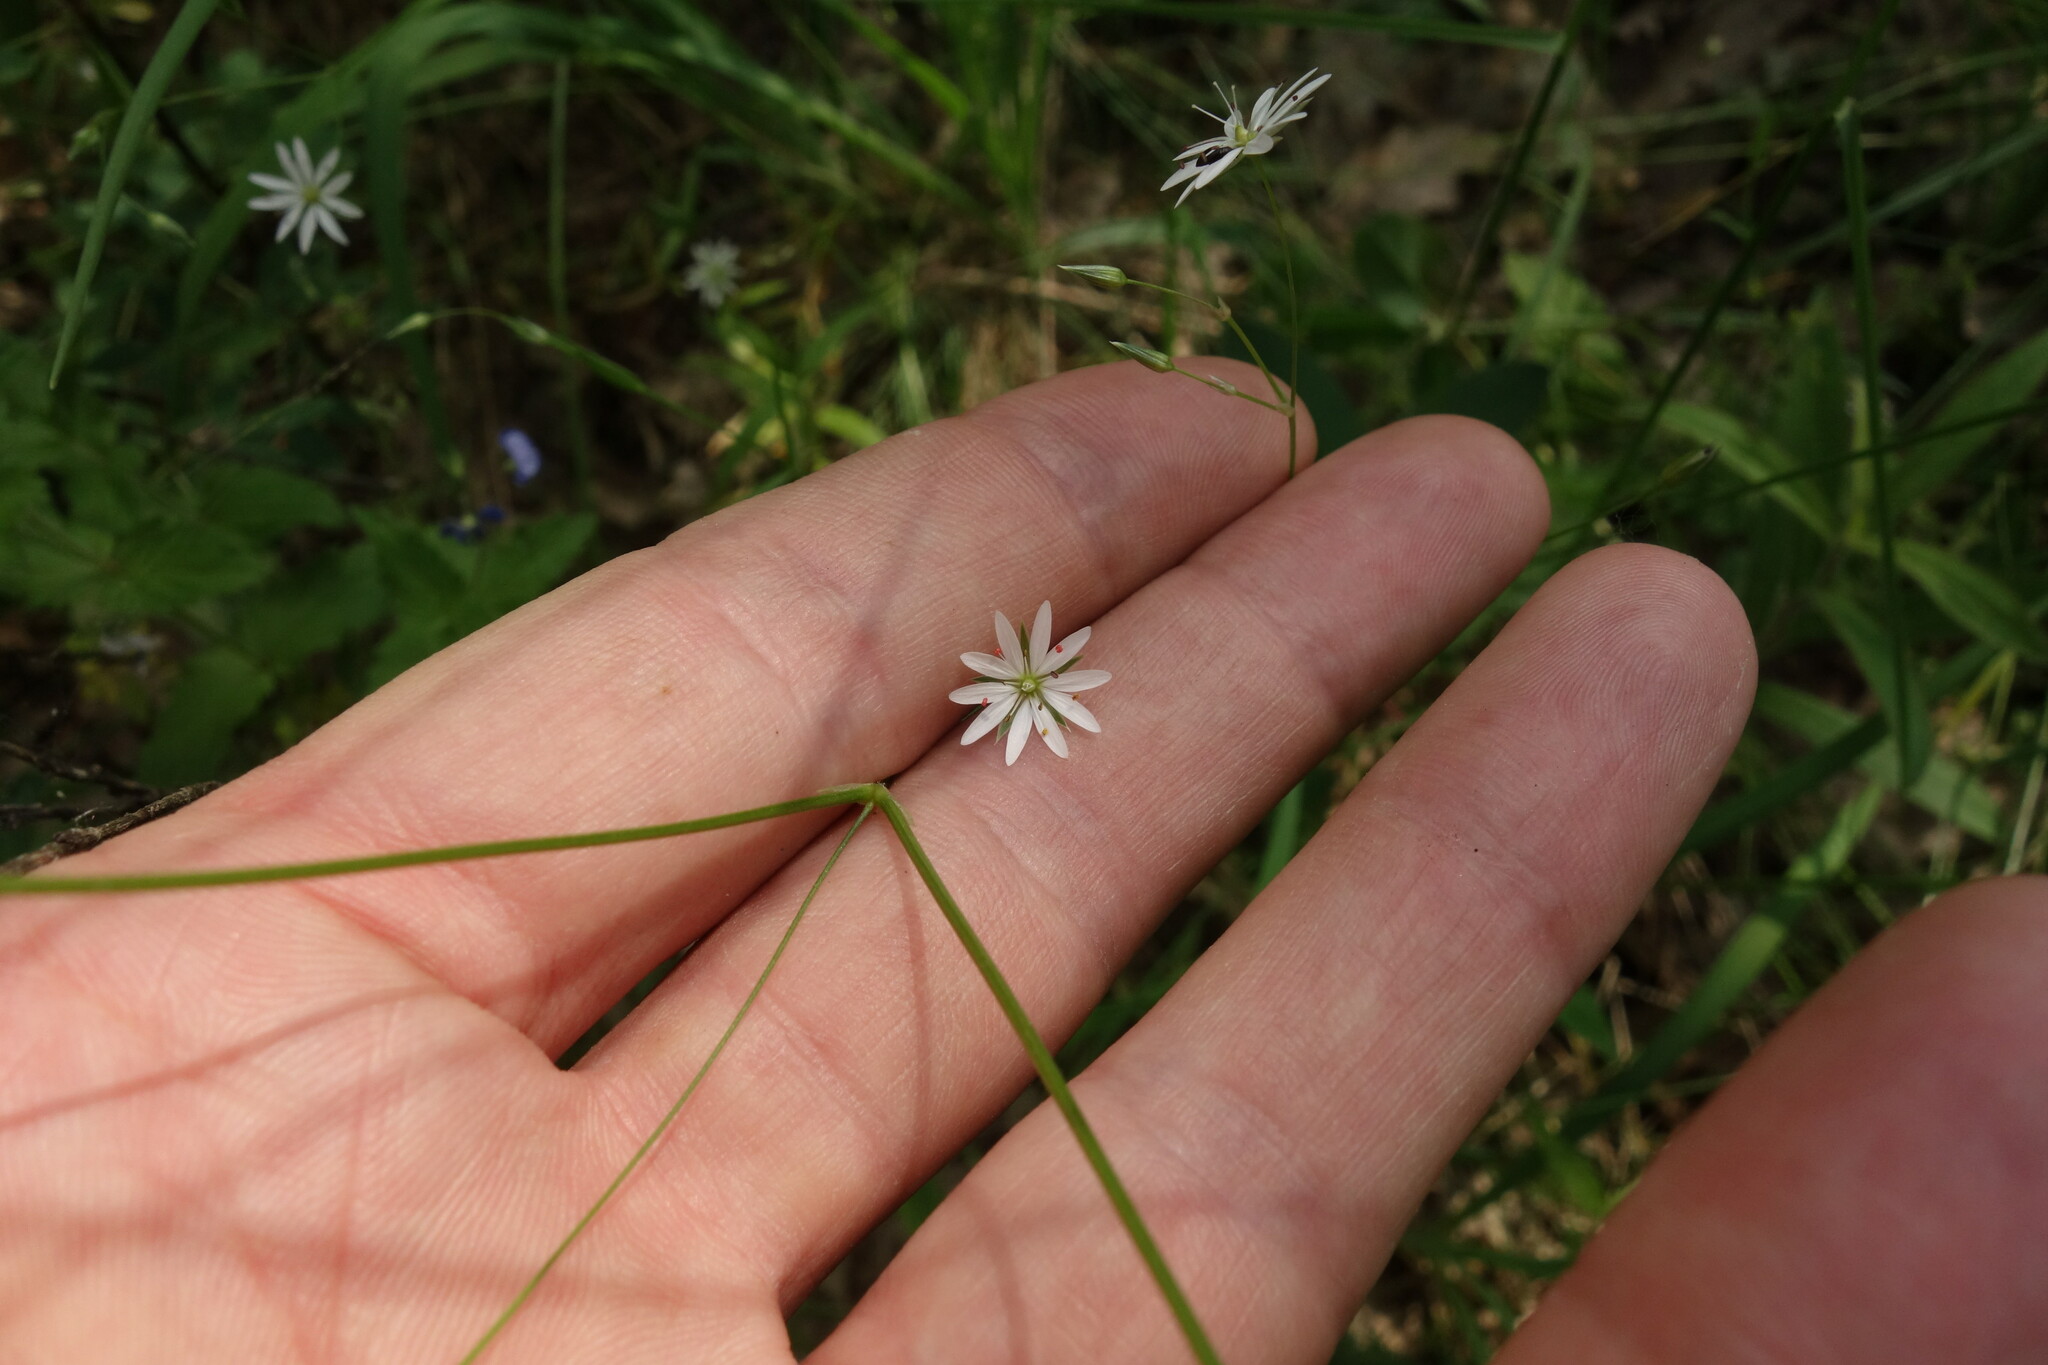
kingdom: Plantae
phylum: Tracheophyta
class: Magnoliopsida
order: Caryophyllales
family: Caryophyllaceae
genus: Stellaria
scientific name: Stellaria graminea
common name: Grass-like starwort
